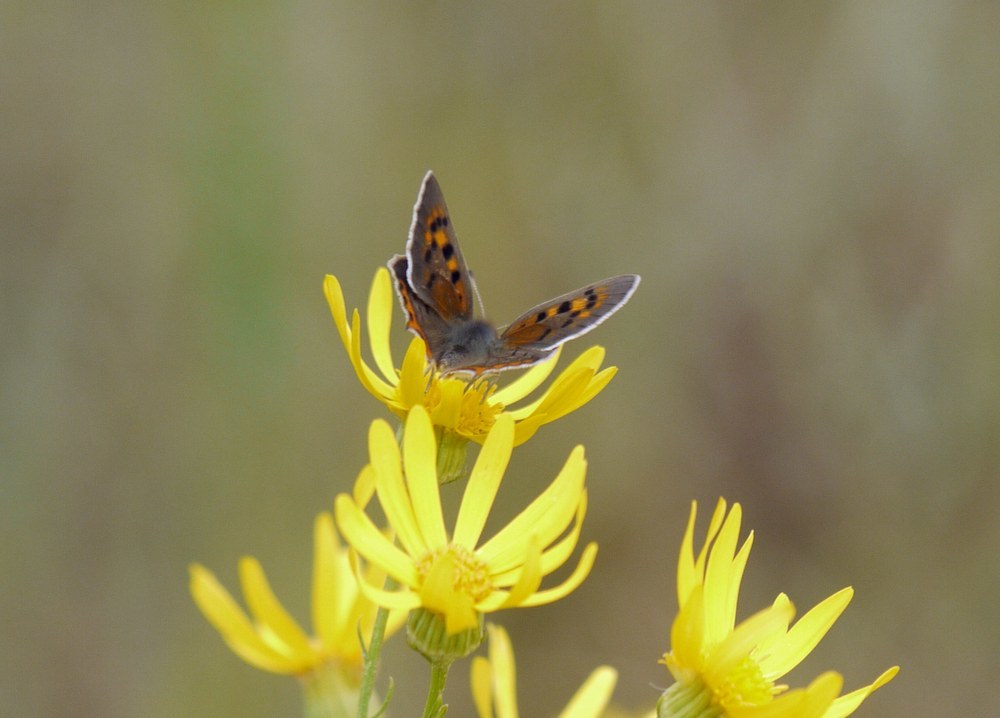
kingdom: Animalia
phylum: Arthropoda
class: Insecta
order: Lepidoptera
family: Lycaenidae
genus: Lycaena
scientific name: Lycaena phlaeas
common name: Small copper
